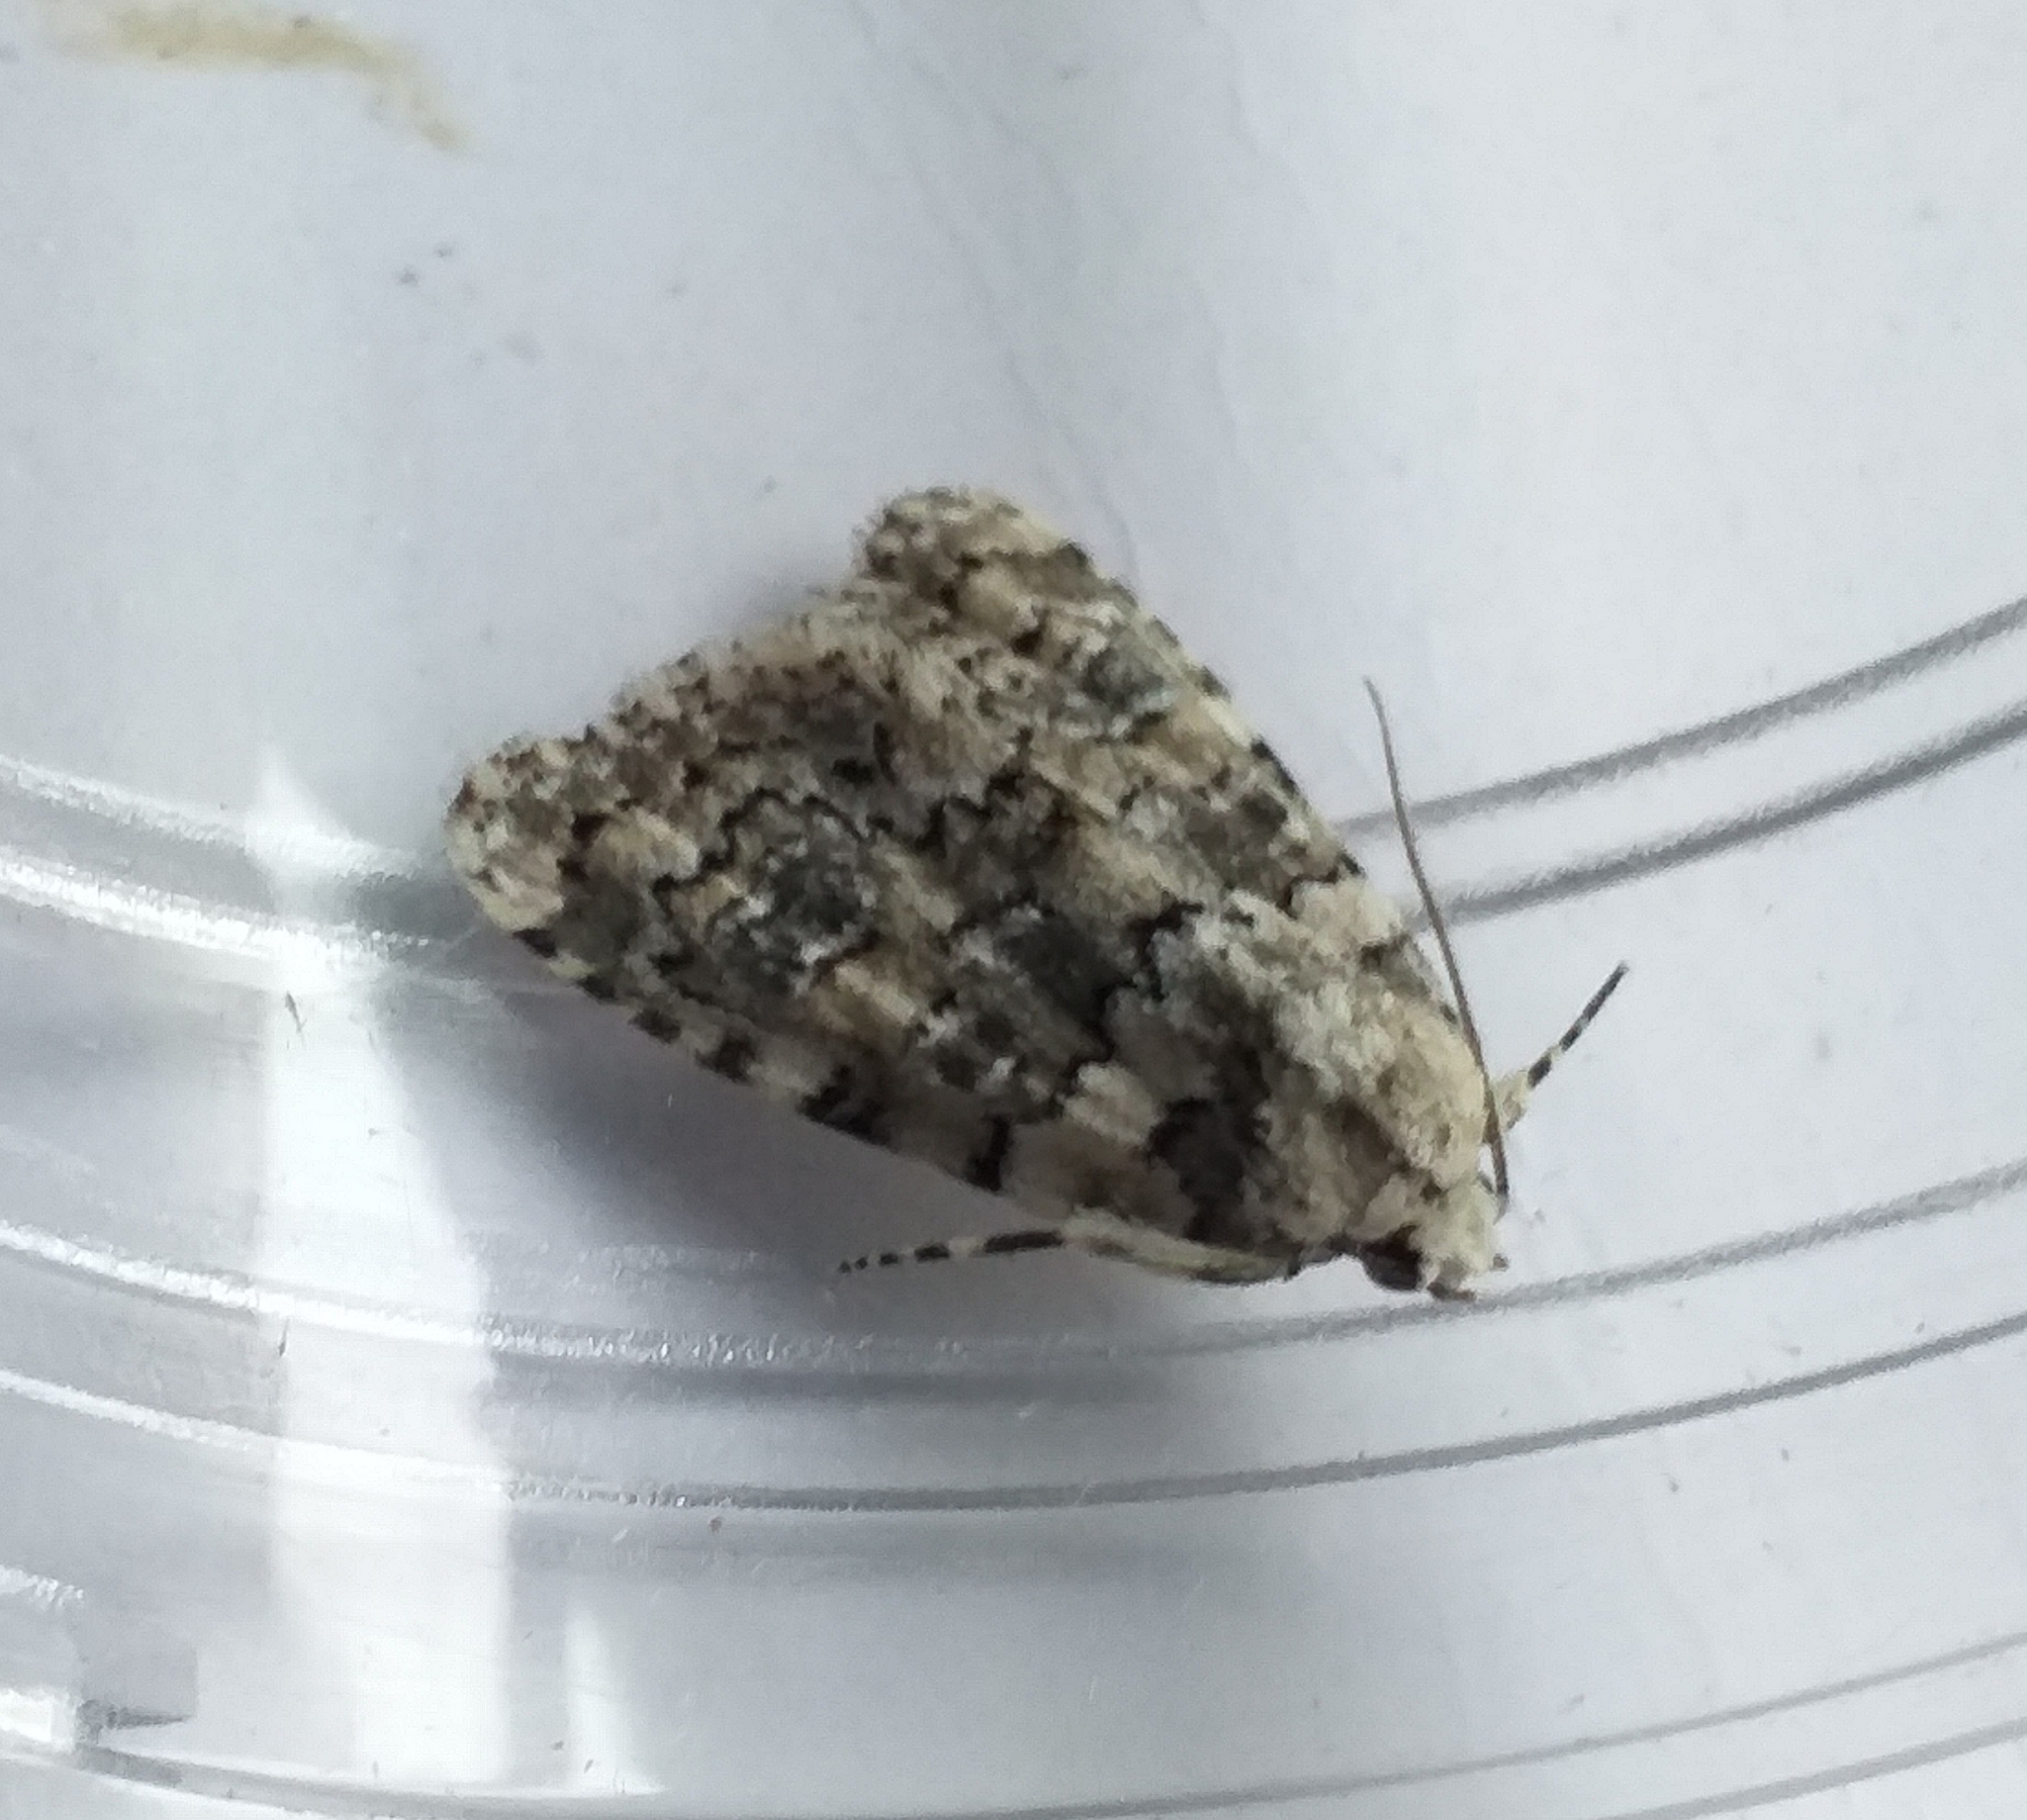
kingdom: Animalia
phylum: Arthropoda
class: Insecta
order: Lepidoptera
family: Noctuidae
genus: Bryophila
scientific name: Bryophila domestica
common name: Marbled beauty
